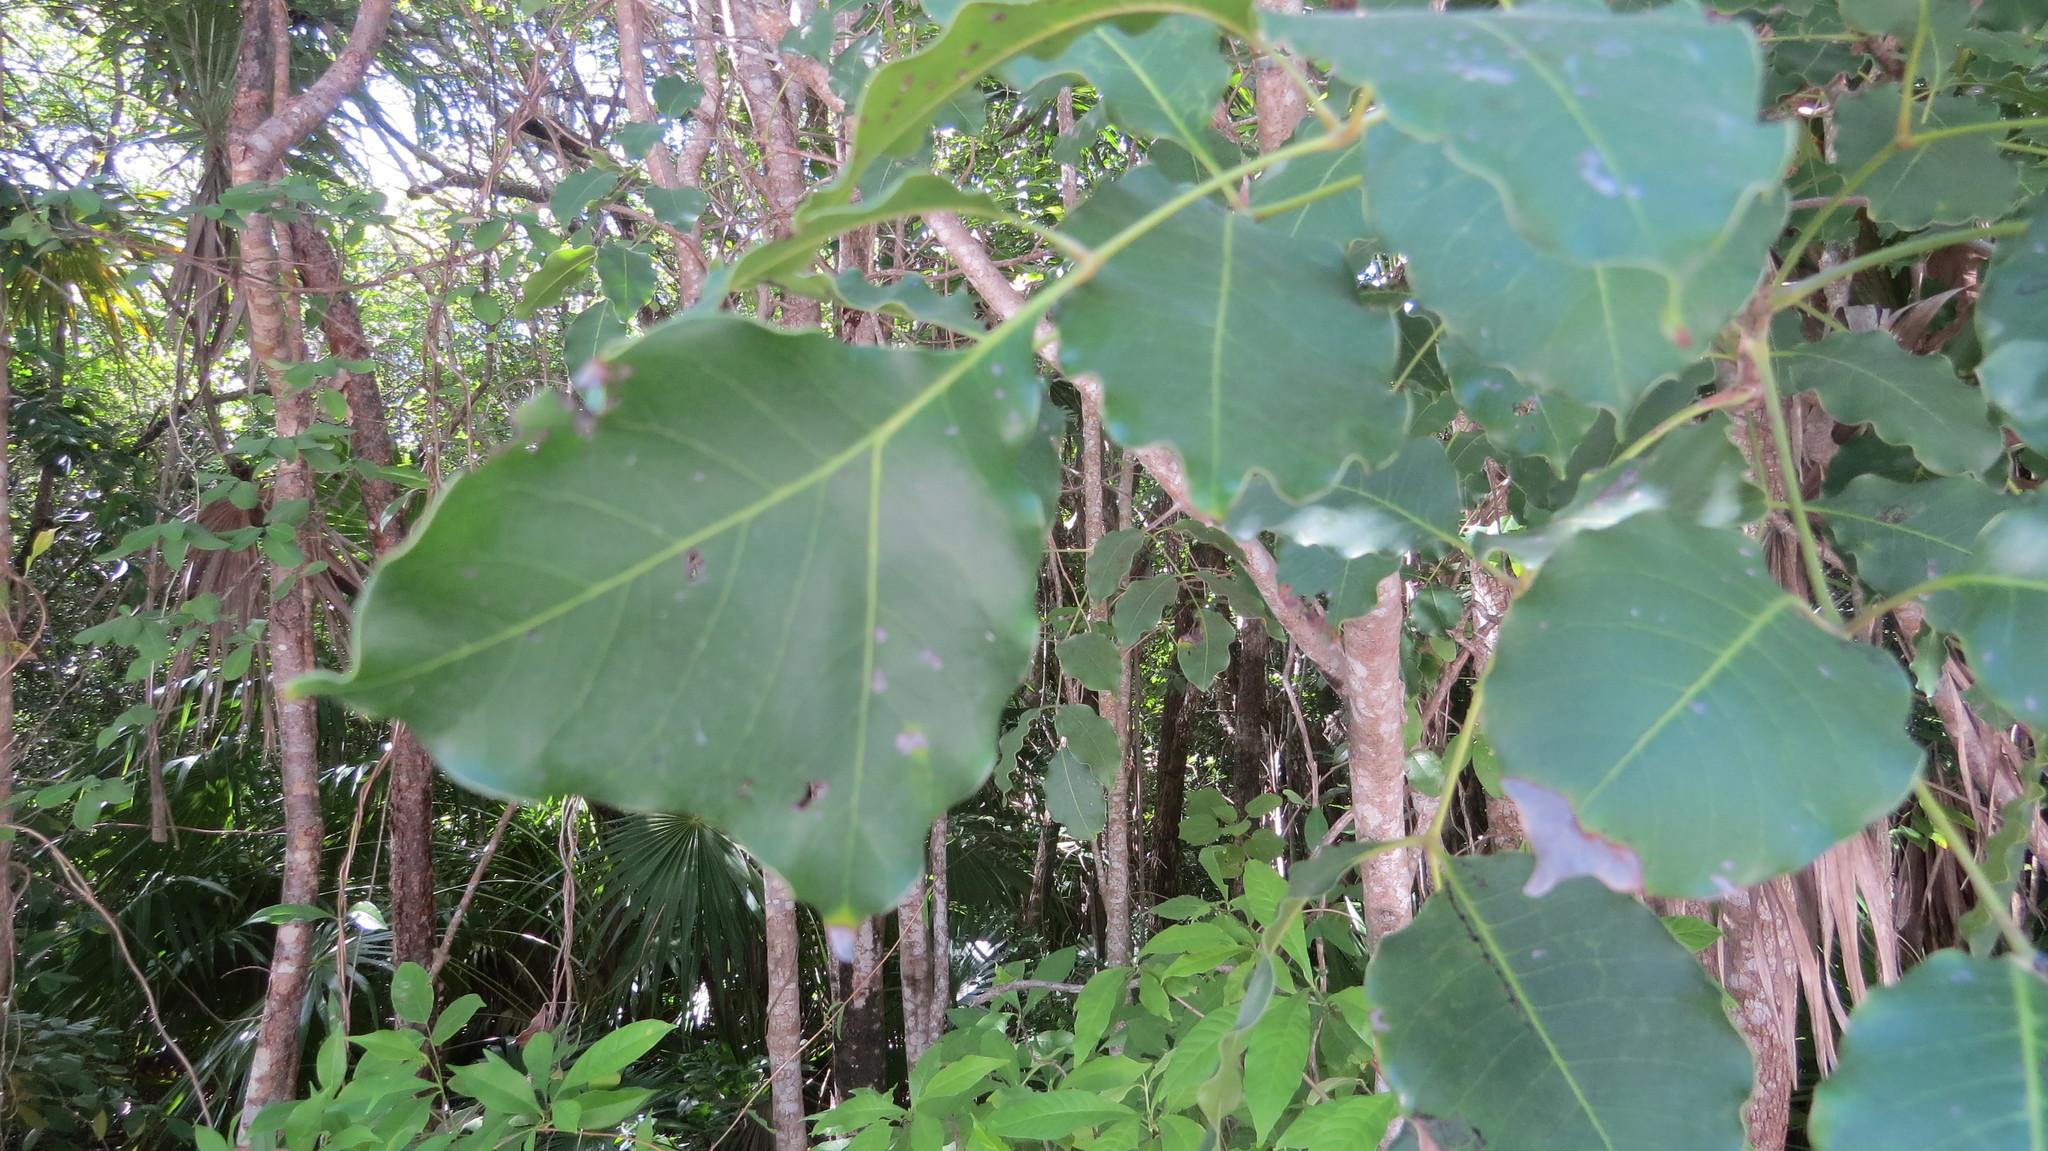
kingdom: Plantae
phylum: Tracheophyta
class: Magnoliopsida
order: Sapindales
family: Anacardiaceae
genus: Metopium
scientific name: Metopium brownei
